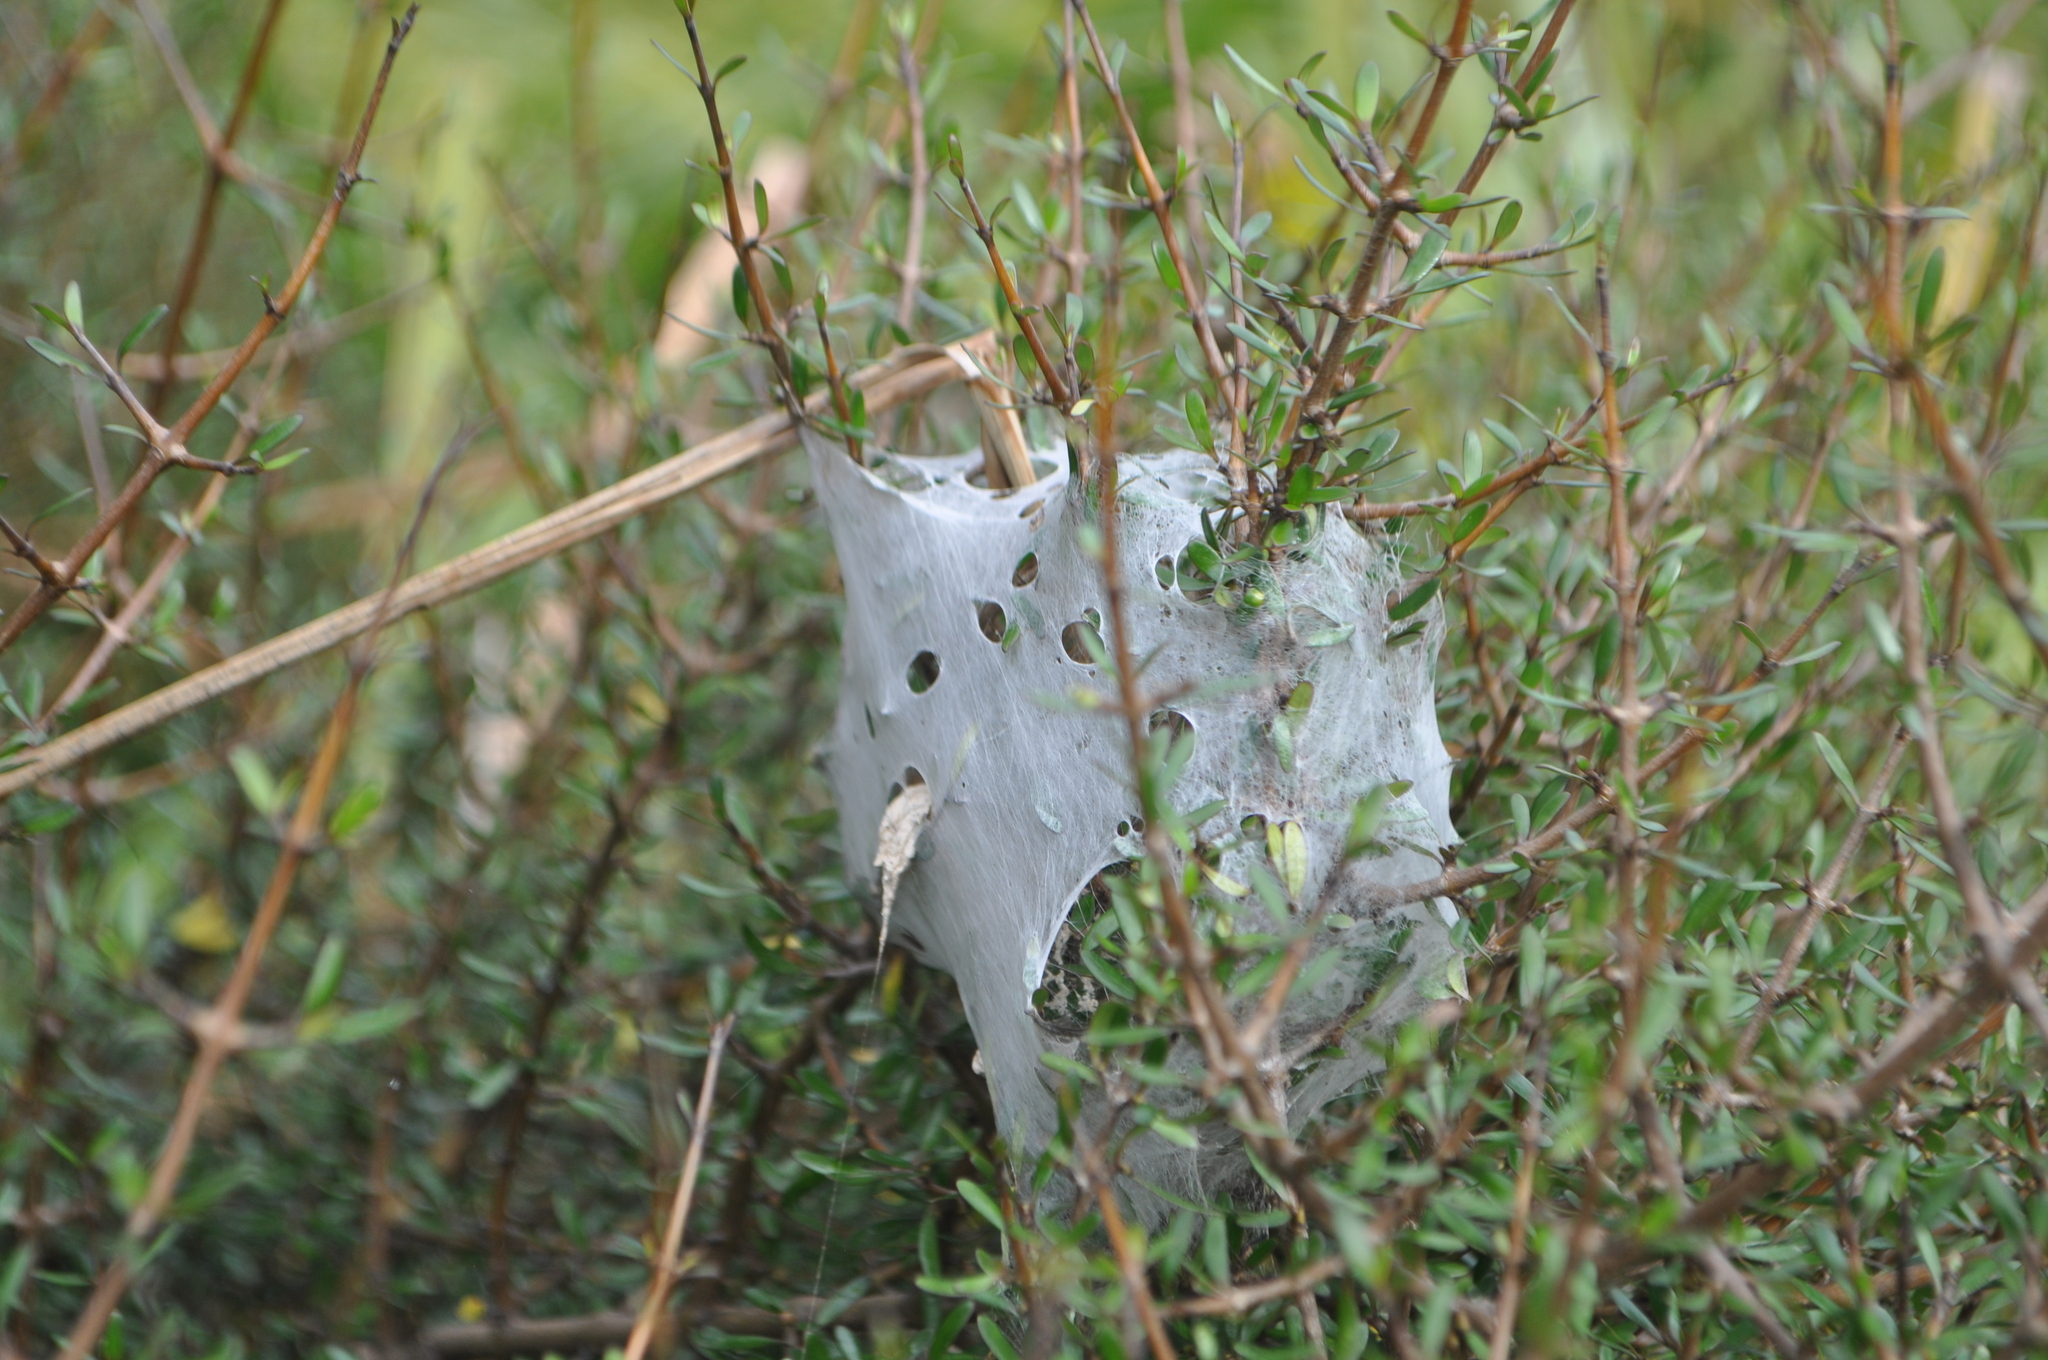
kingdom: Animalia
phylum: Arthropoda
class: Arachnida
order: Araneae
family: Pisauridae
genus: Dolomedes
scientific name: Dolomedes minor
